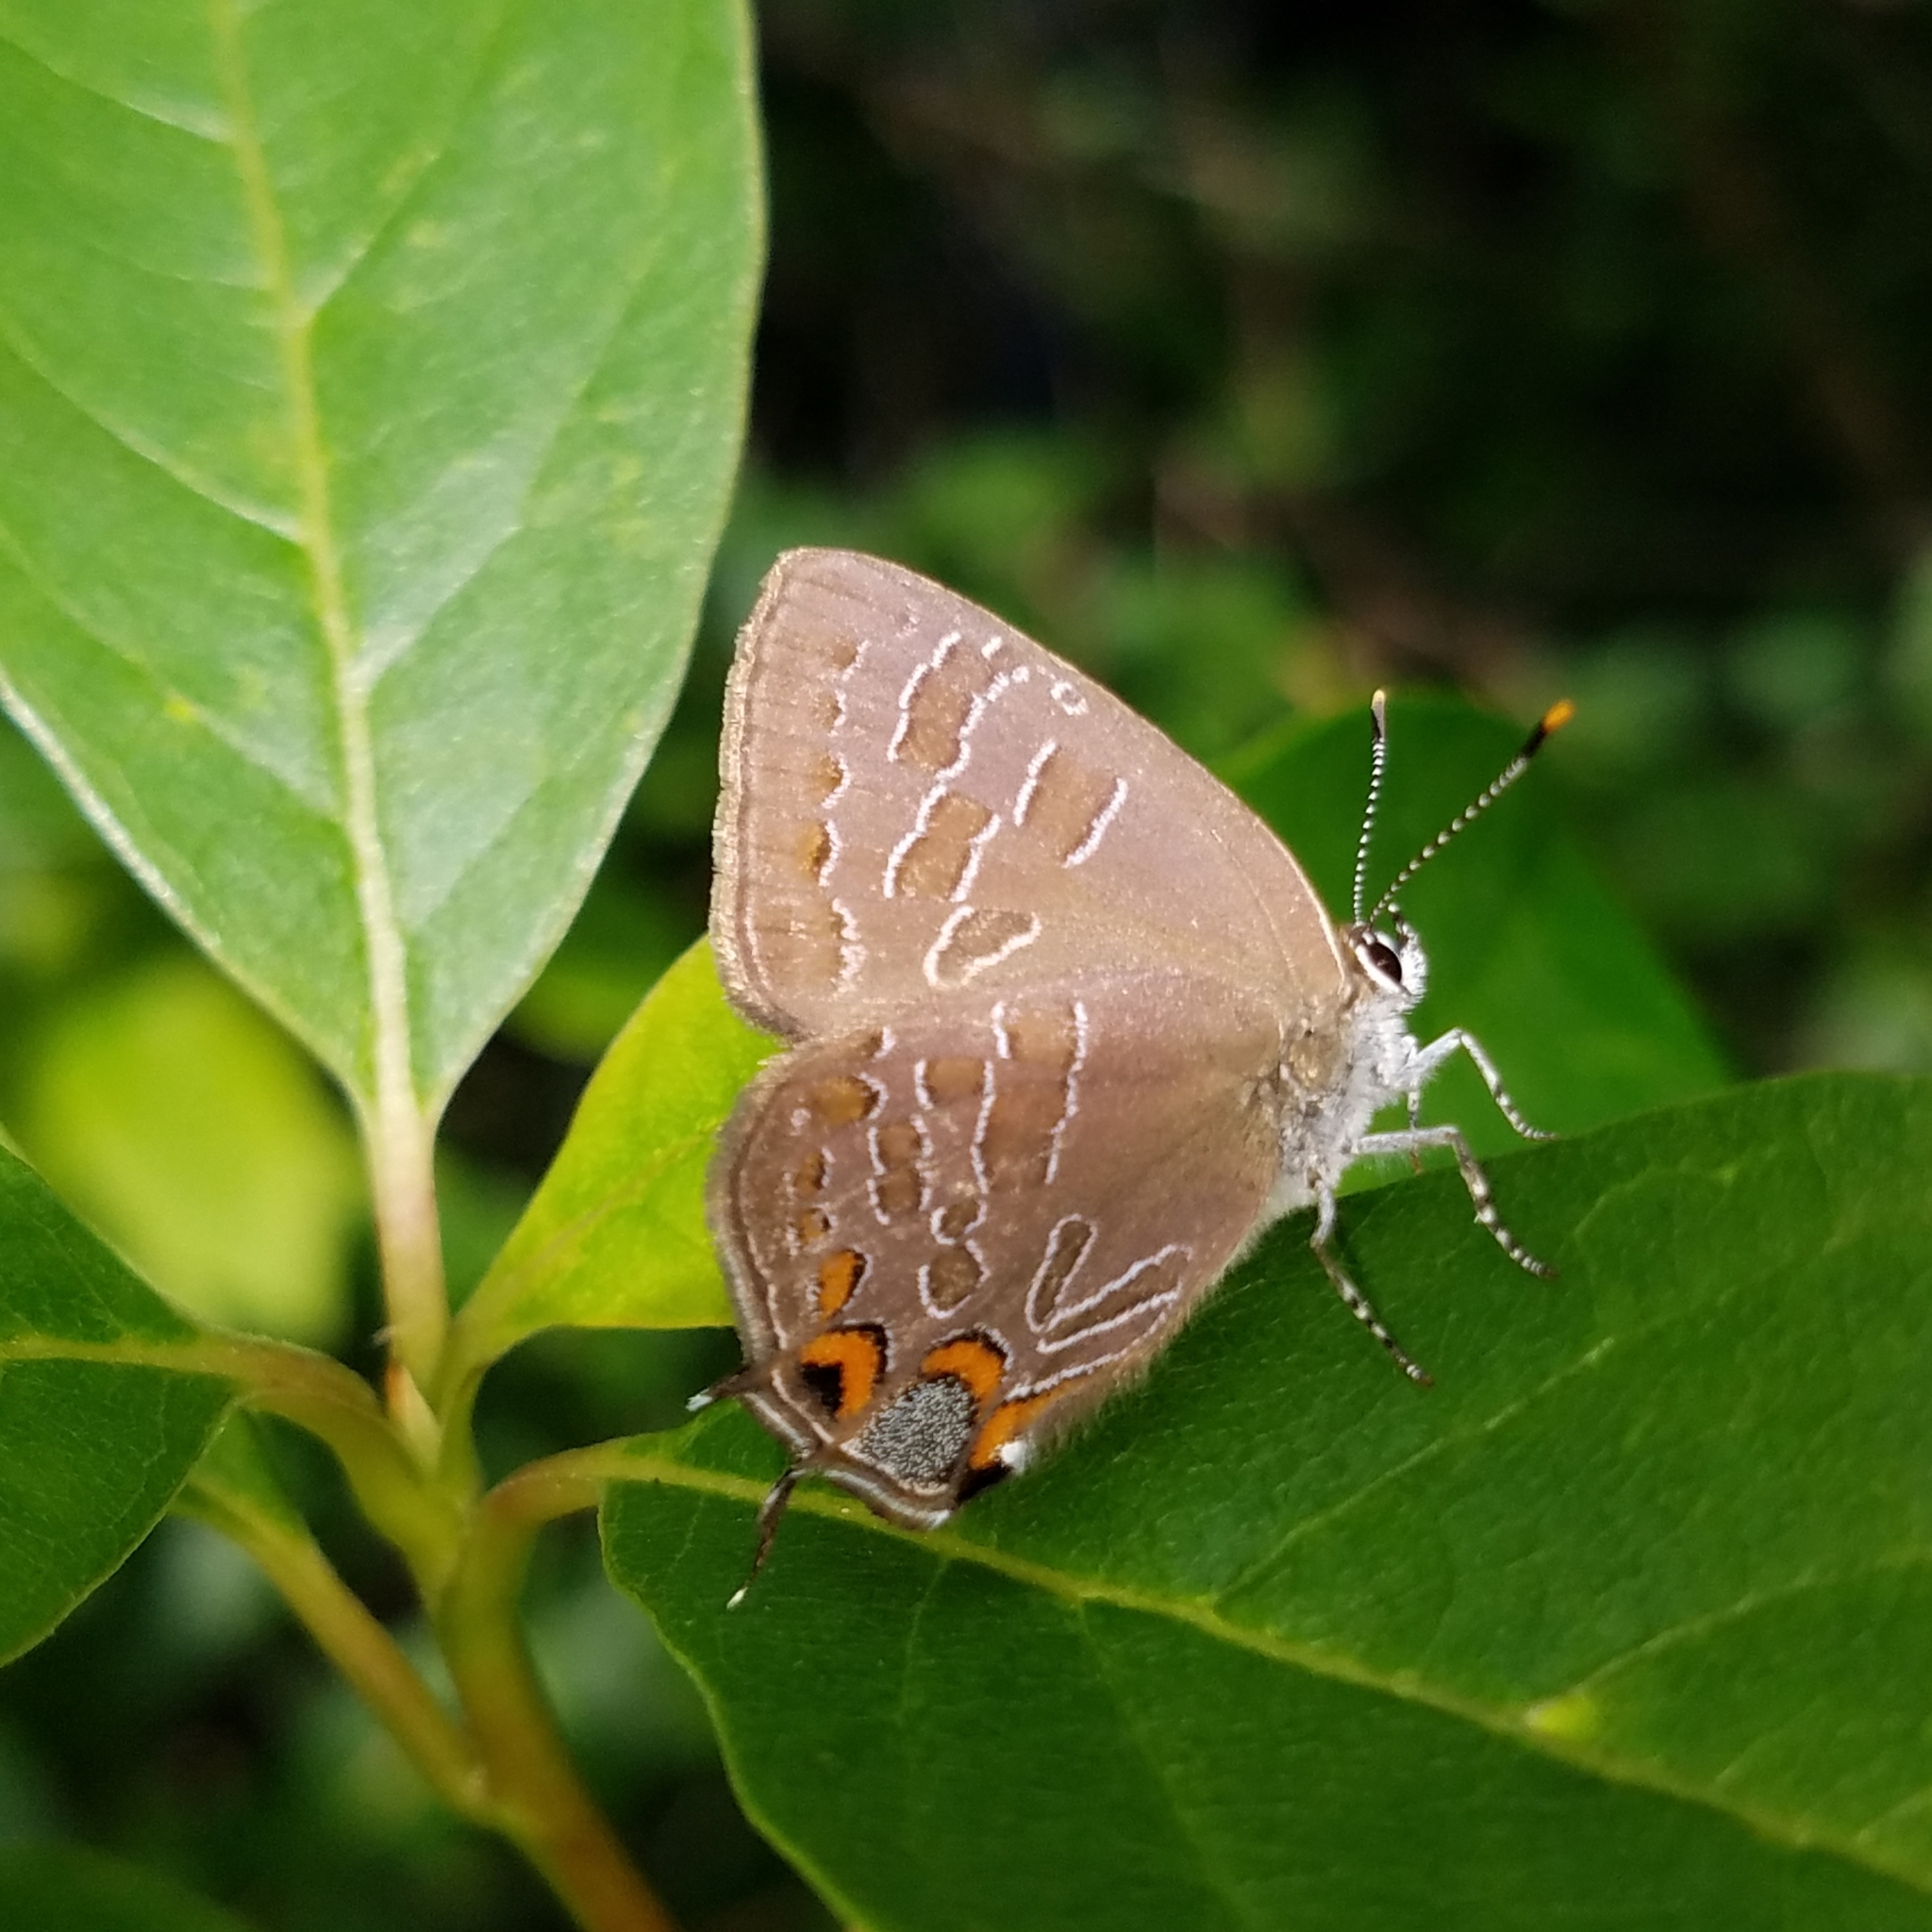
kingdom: Animalia
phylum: Arthropoda
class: Insecta
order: Lepidoptera
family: Lycaenidae
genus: Satyrium
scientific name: Satyrium liparops
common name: Striped hairstreak
